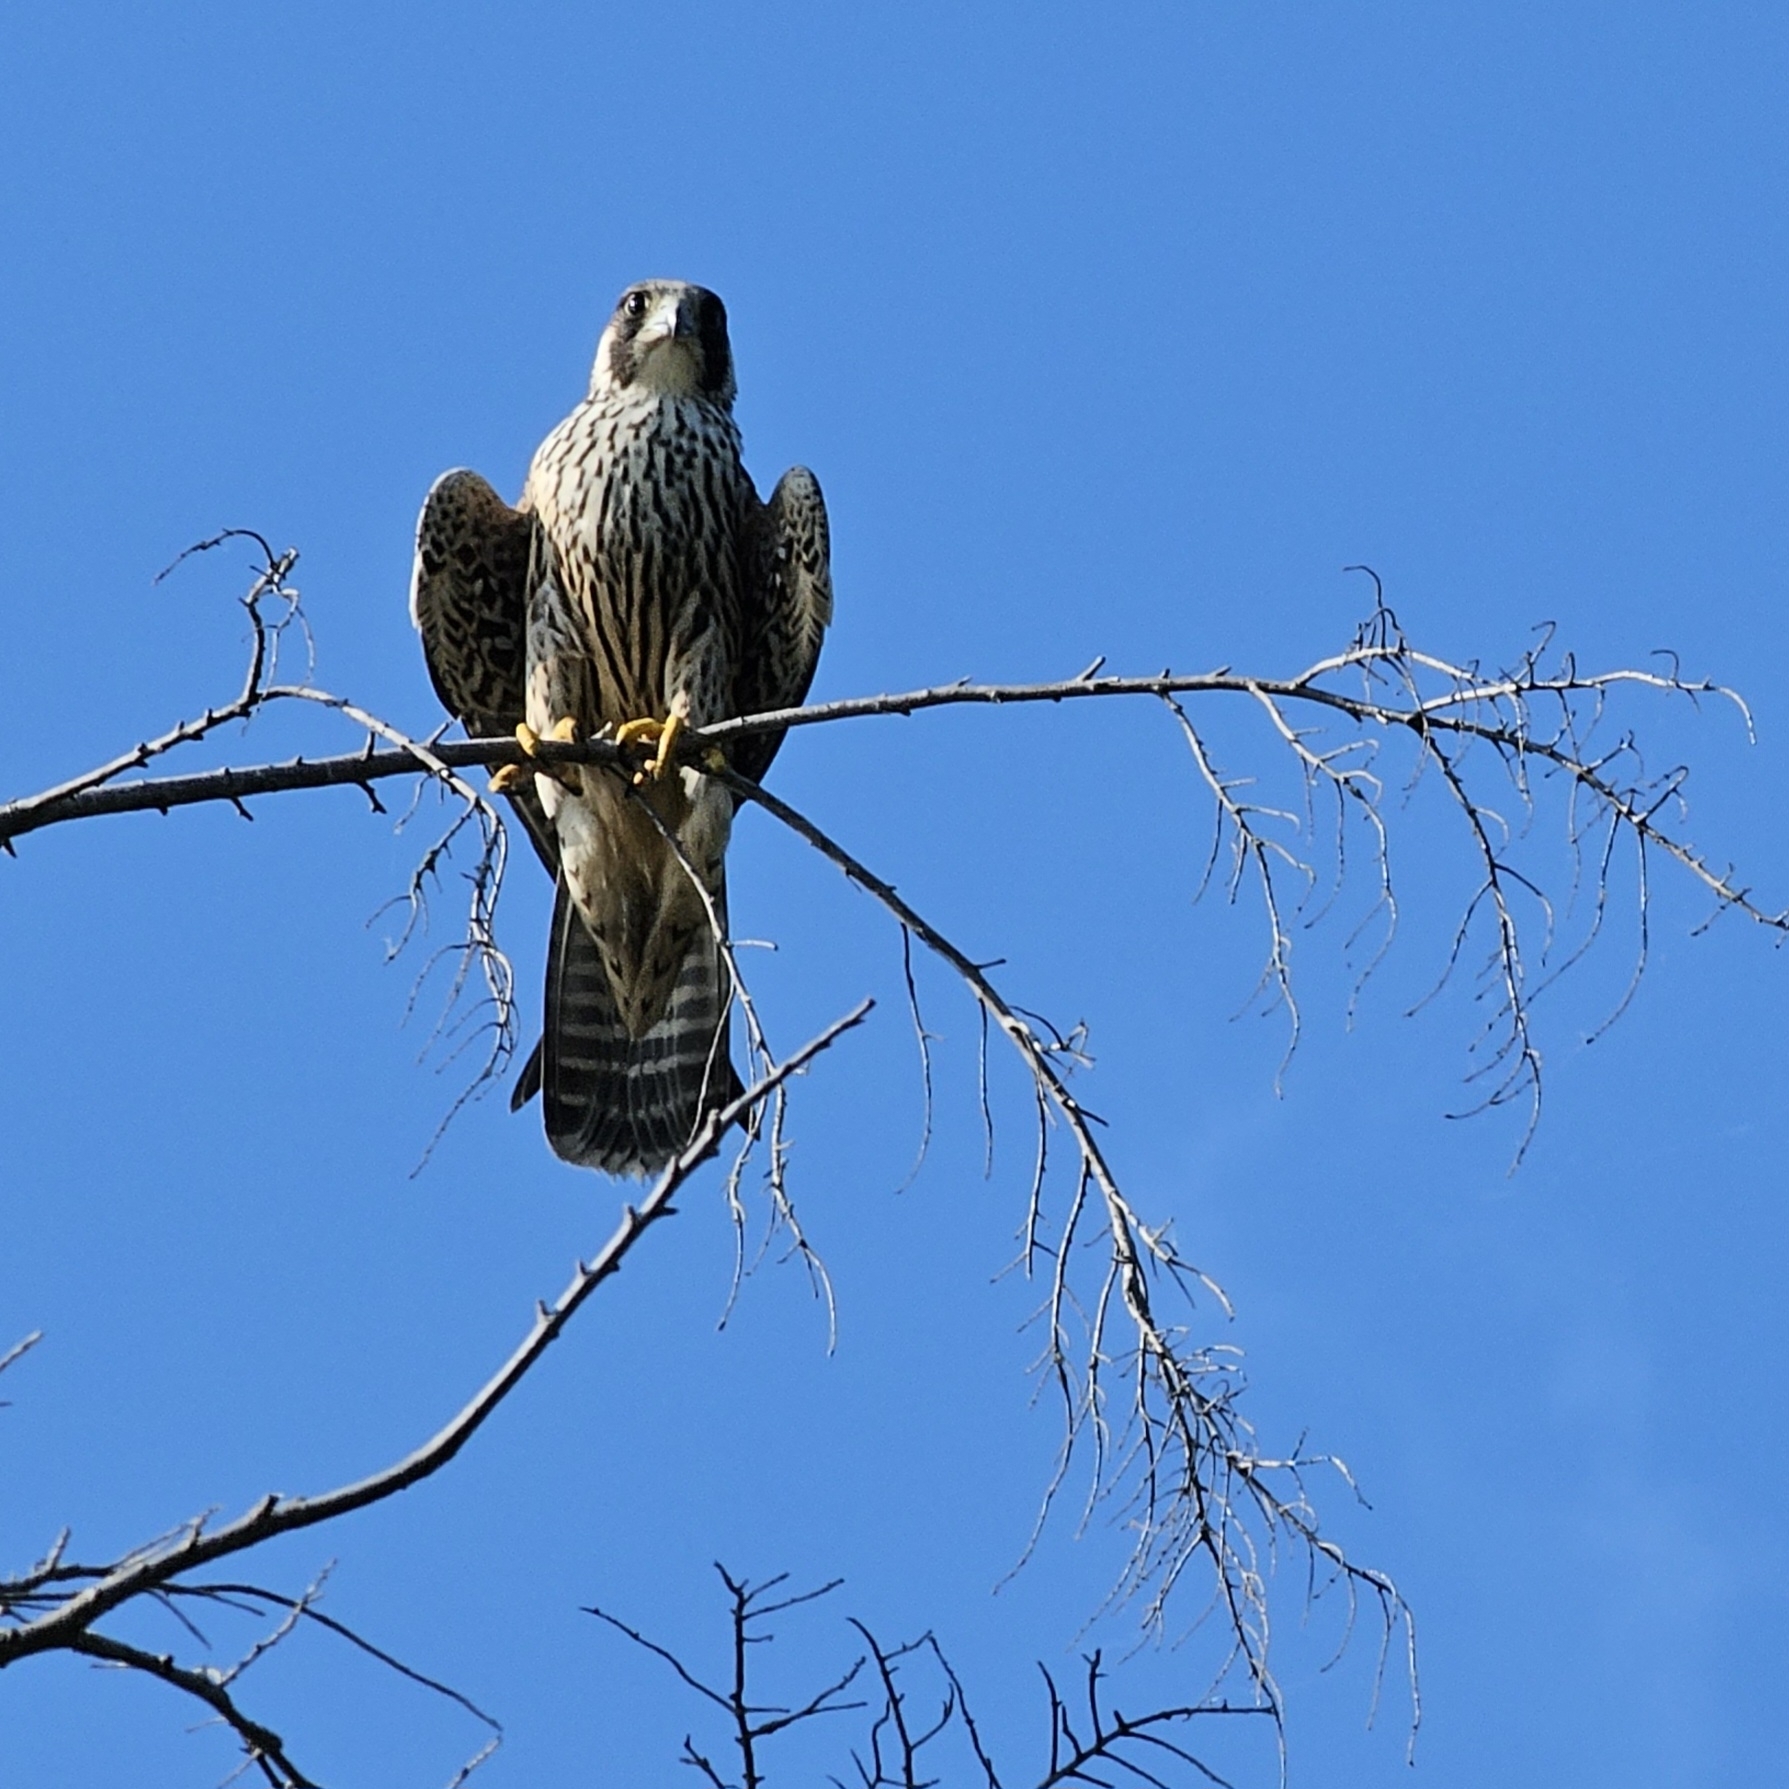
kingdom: Animalia
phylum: Chordata
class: Aves
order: Falconiformes
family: Falconidae
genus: Falco
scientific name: Falco peregrinus
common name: Peregrine falcon
